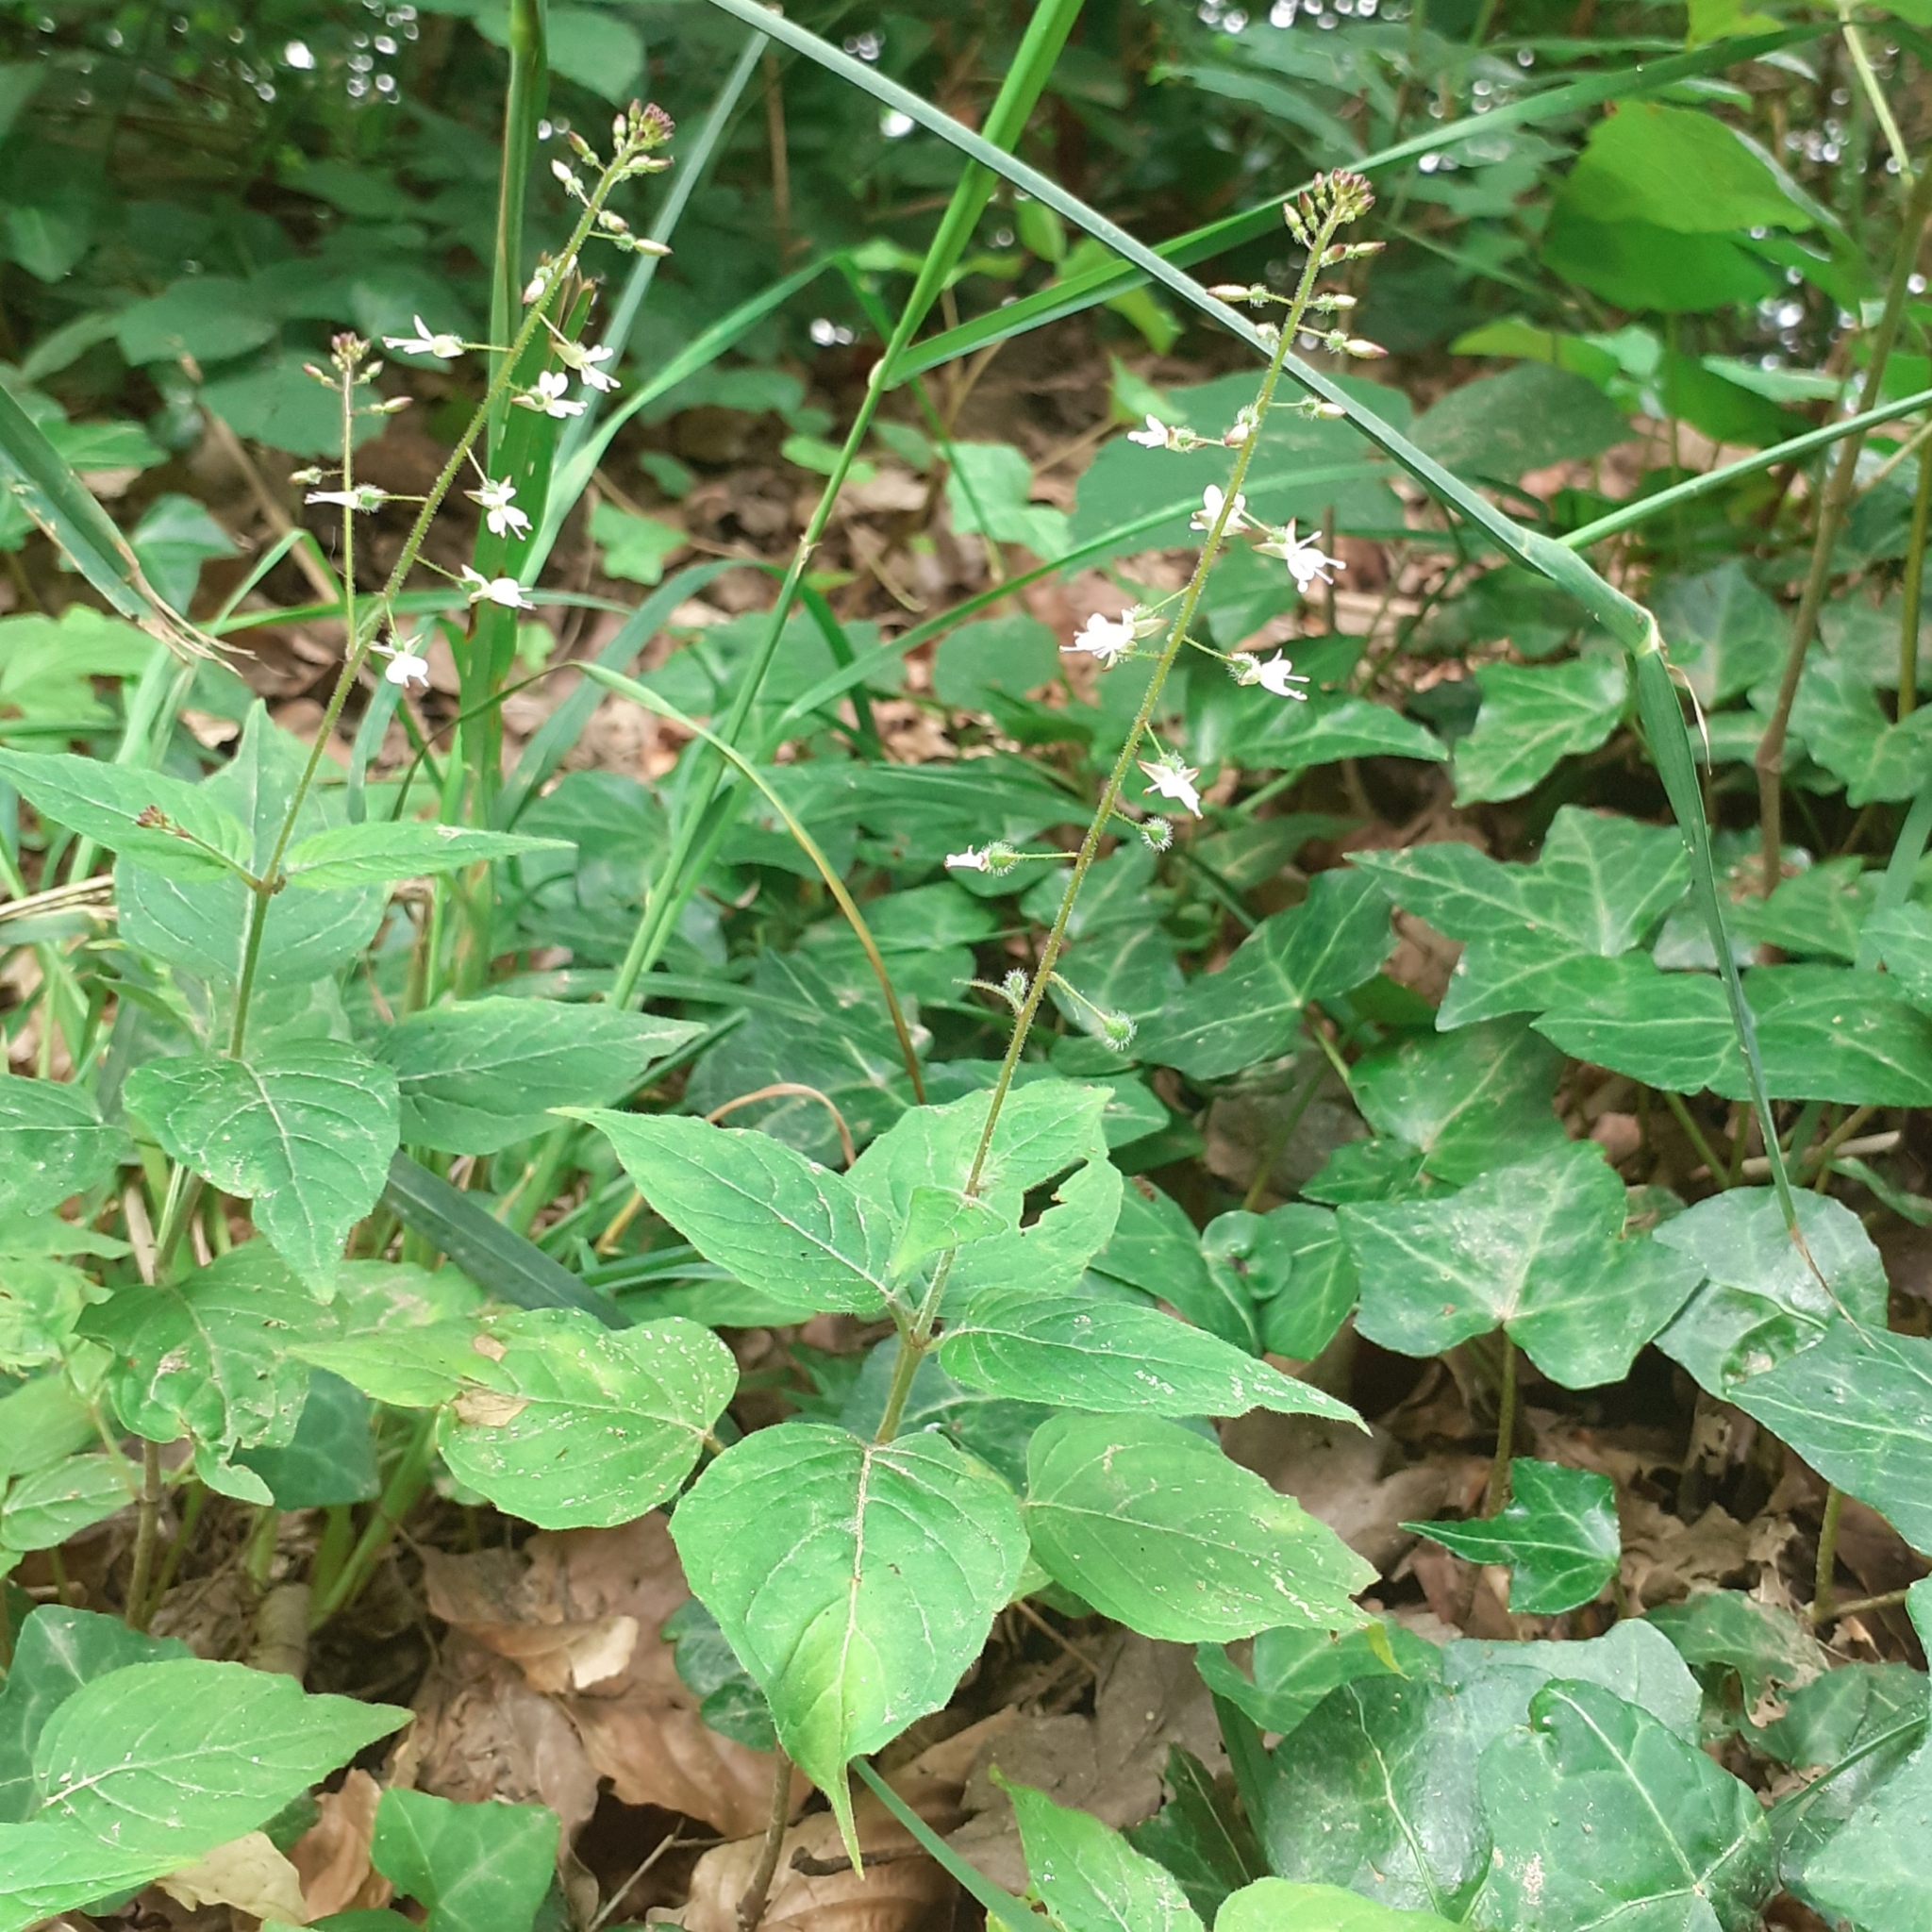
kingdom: Plantae
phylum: Tracheophyta
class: Magnoliopsida
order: Myrtales
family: Onagraceae
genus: Circaea
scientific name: Circaea lutetiana
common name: Enchanter's-nightshade
